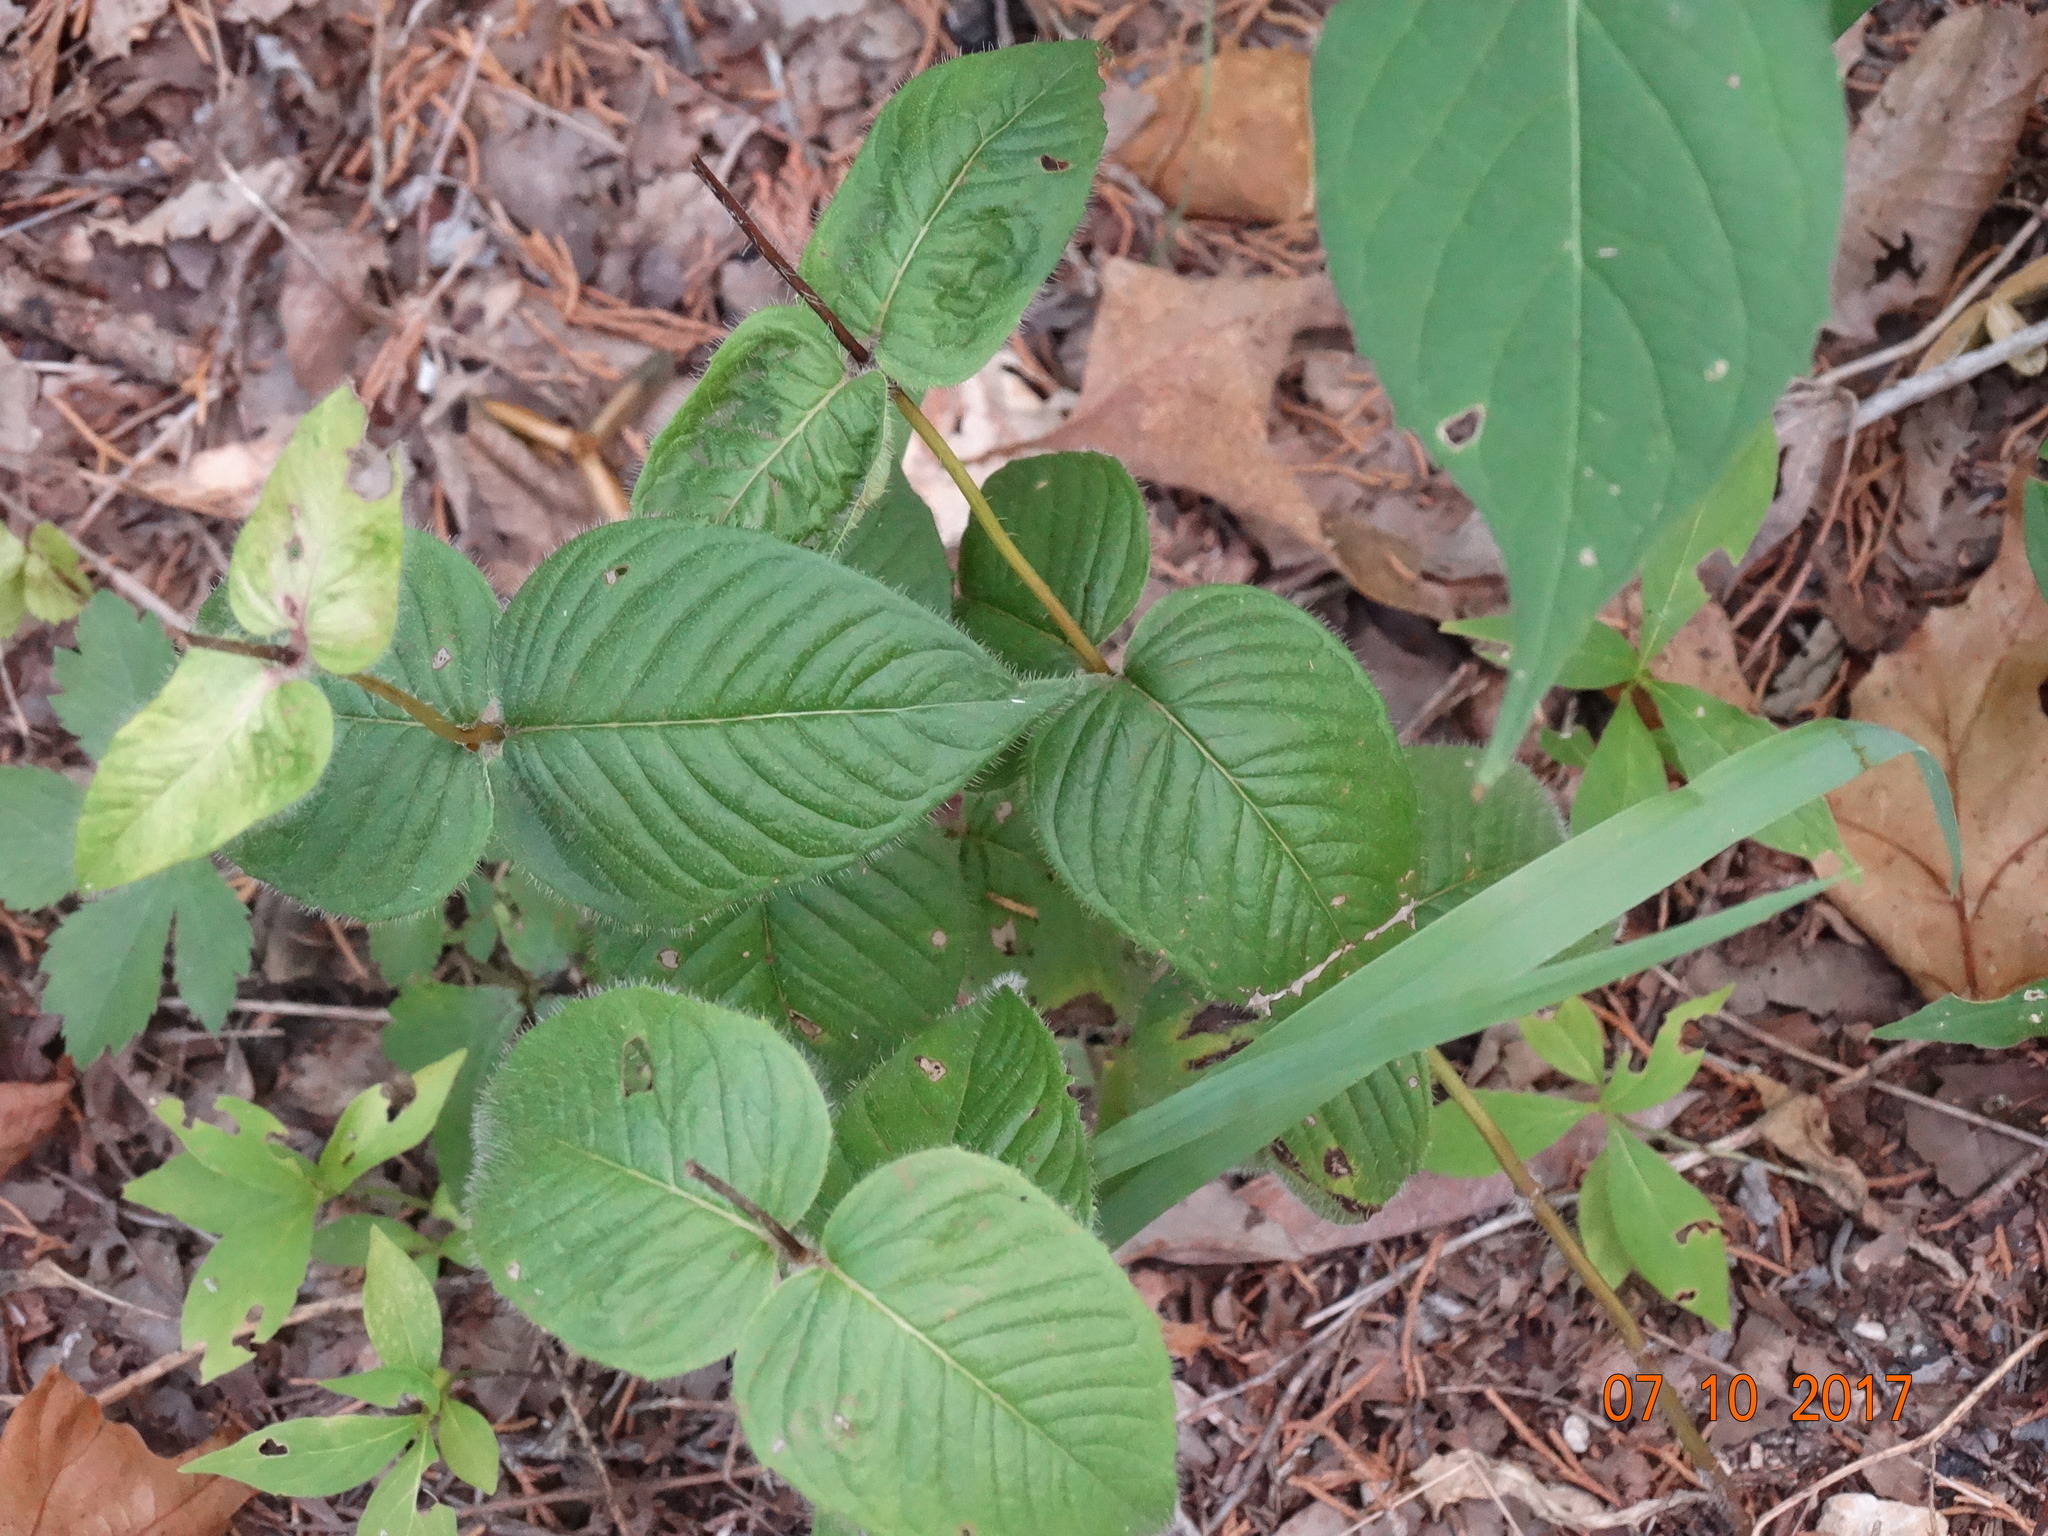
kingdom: Plantae
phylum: Tracheophyta
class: Magnoliopsida
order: Lamiales
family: Lamiaceae
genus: Monarda
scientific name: Monarda bradburiana
